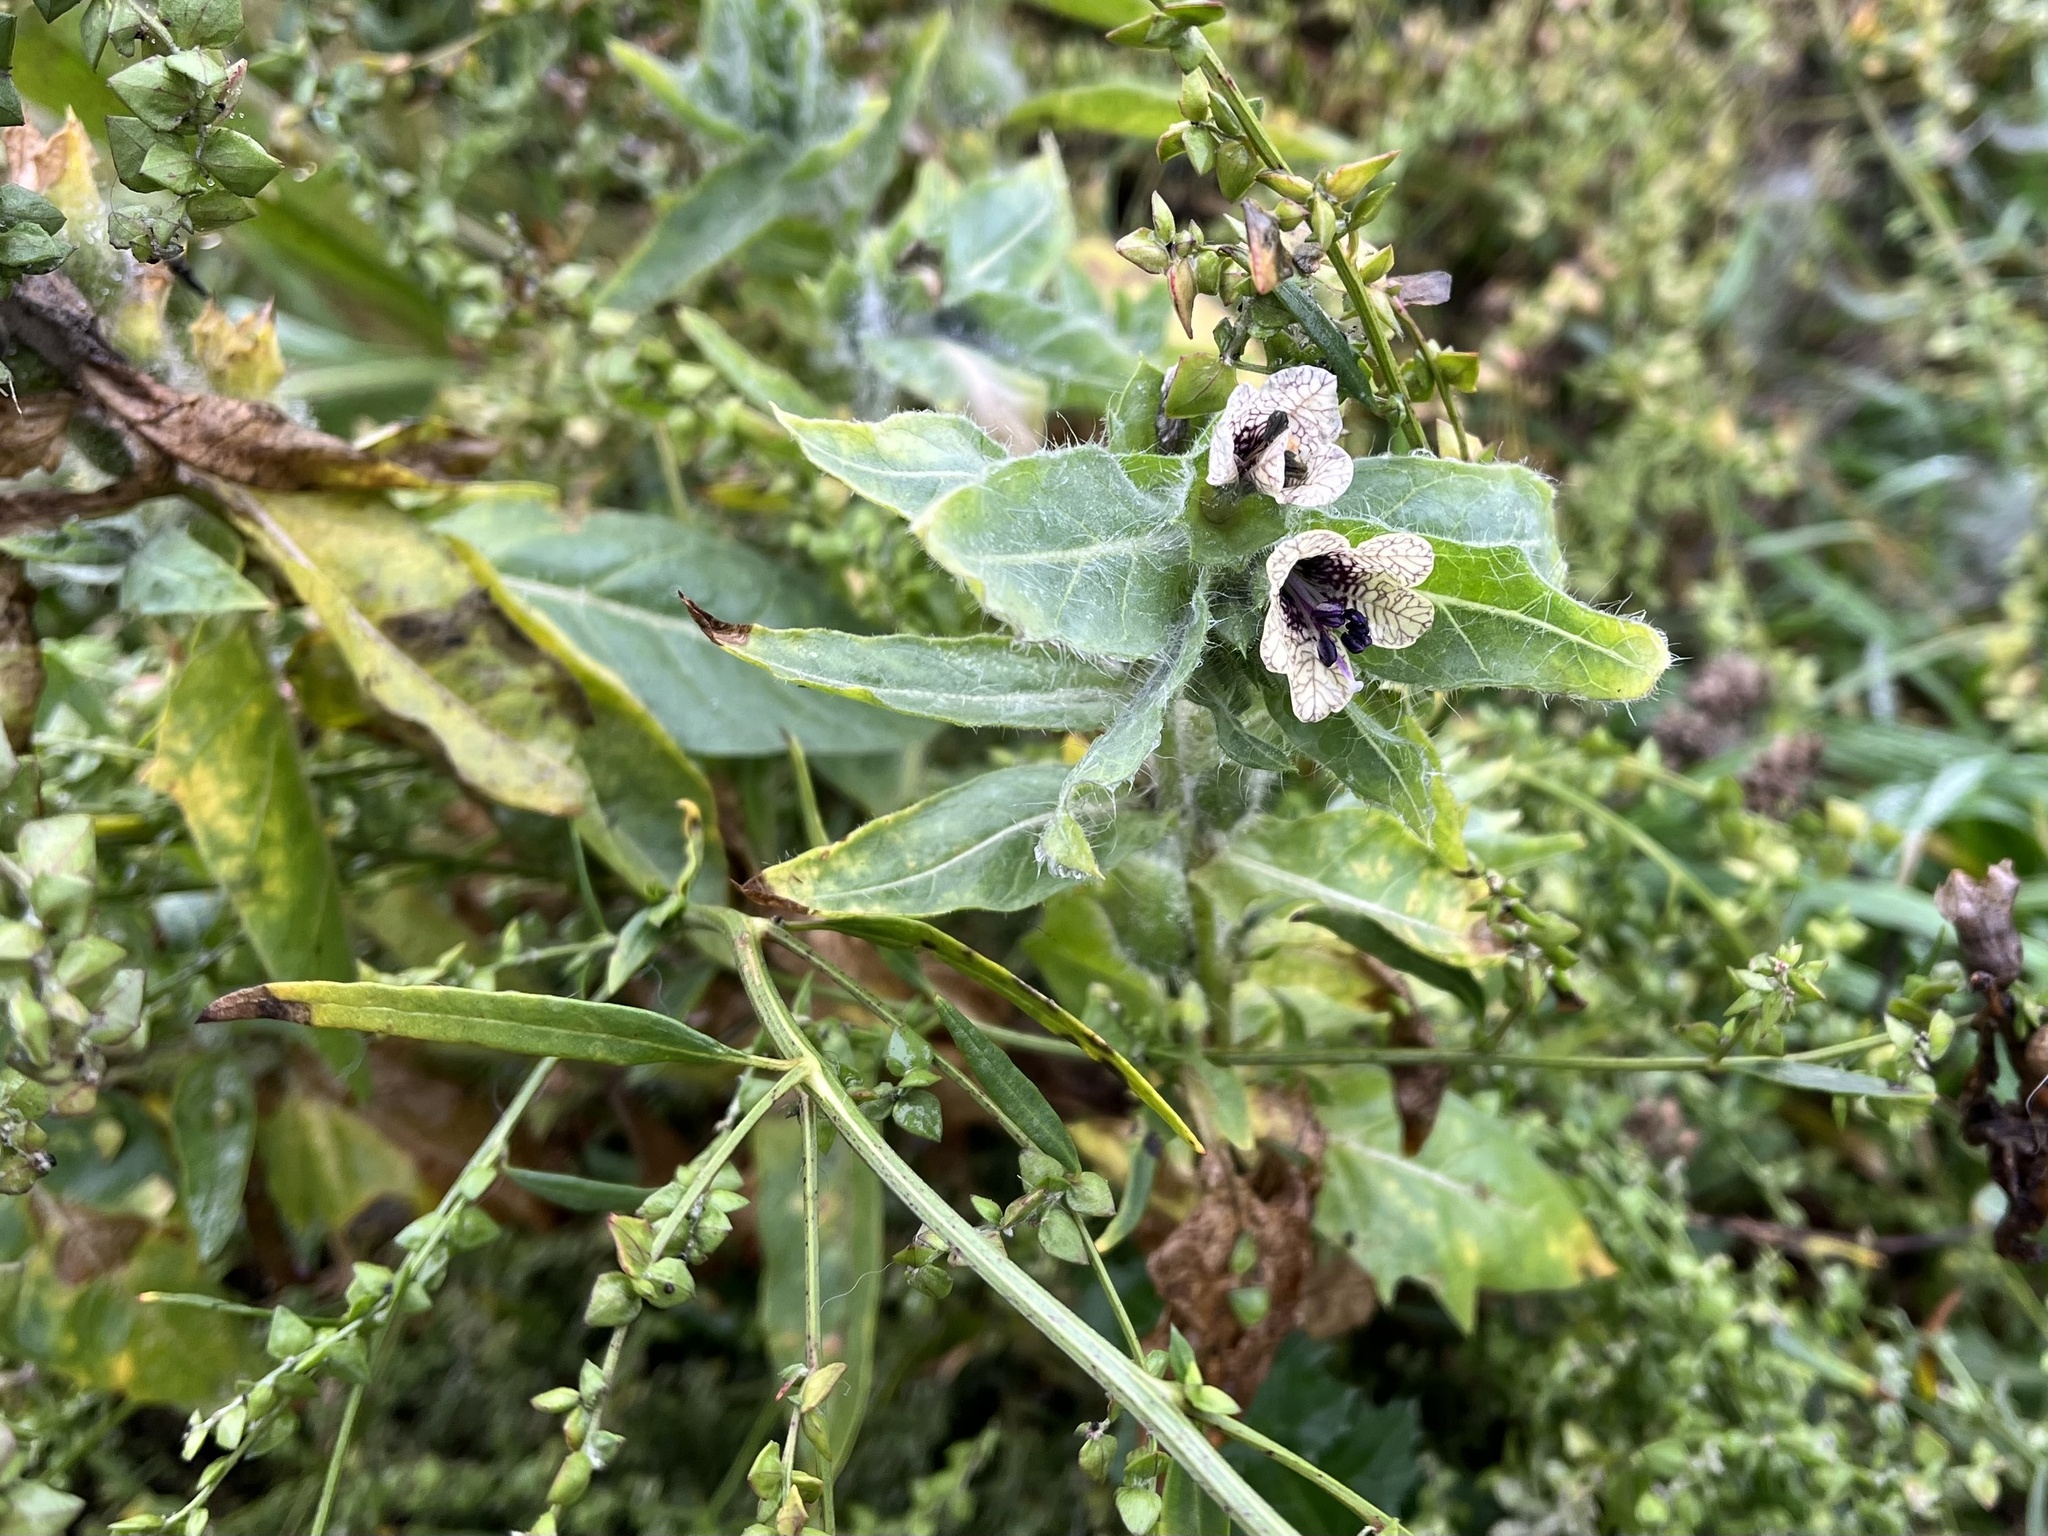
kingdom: Plantae
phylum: Tracheophyta
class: Magnoliopsida
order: Solanales
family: Solanaceae
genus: Hyoscyamus
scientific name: Hyoscyamus niger
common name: Henbane
